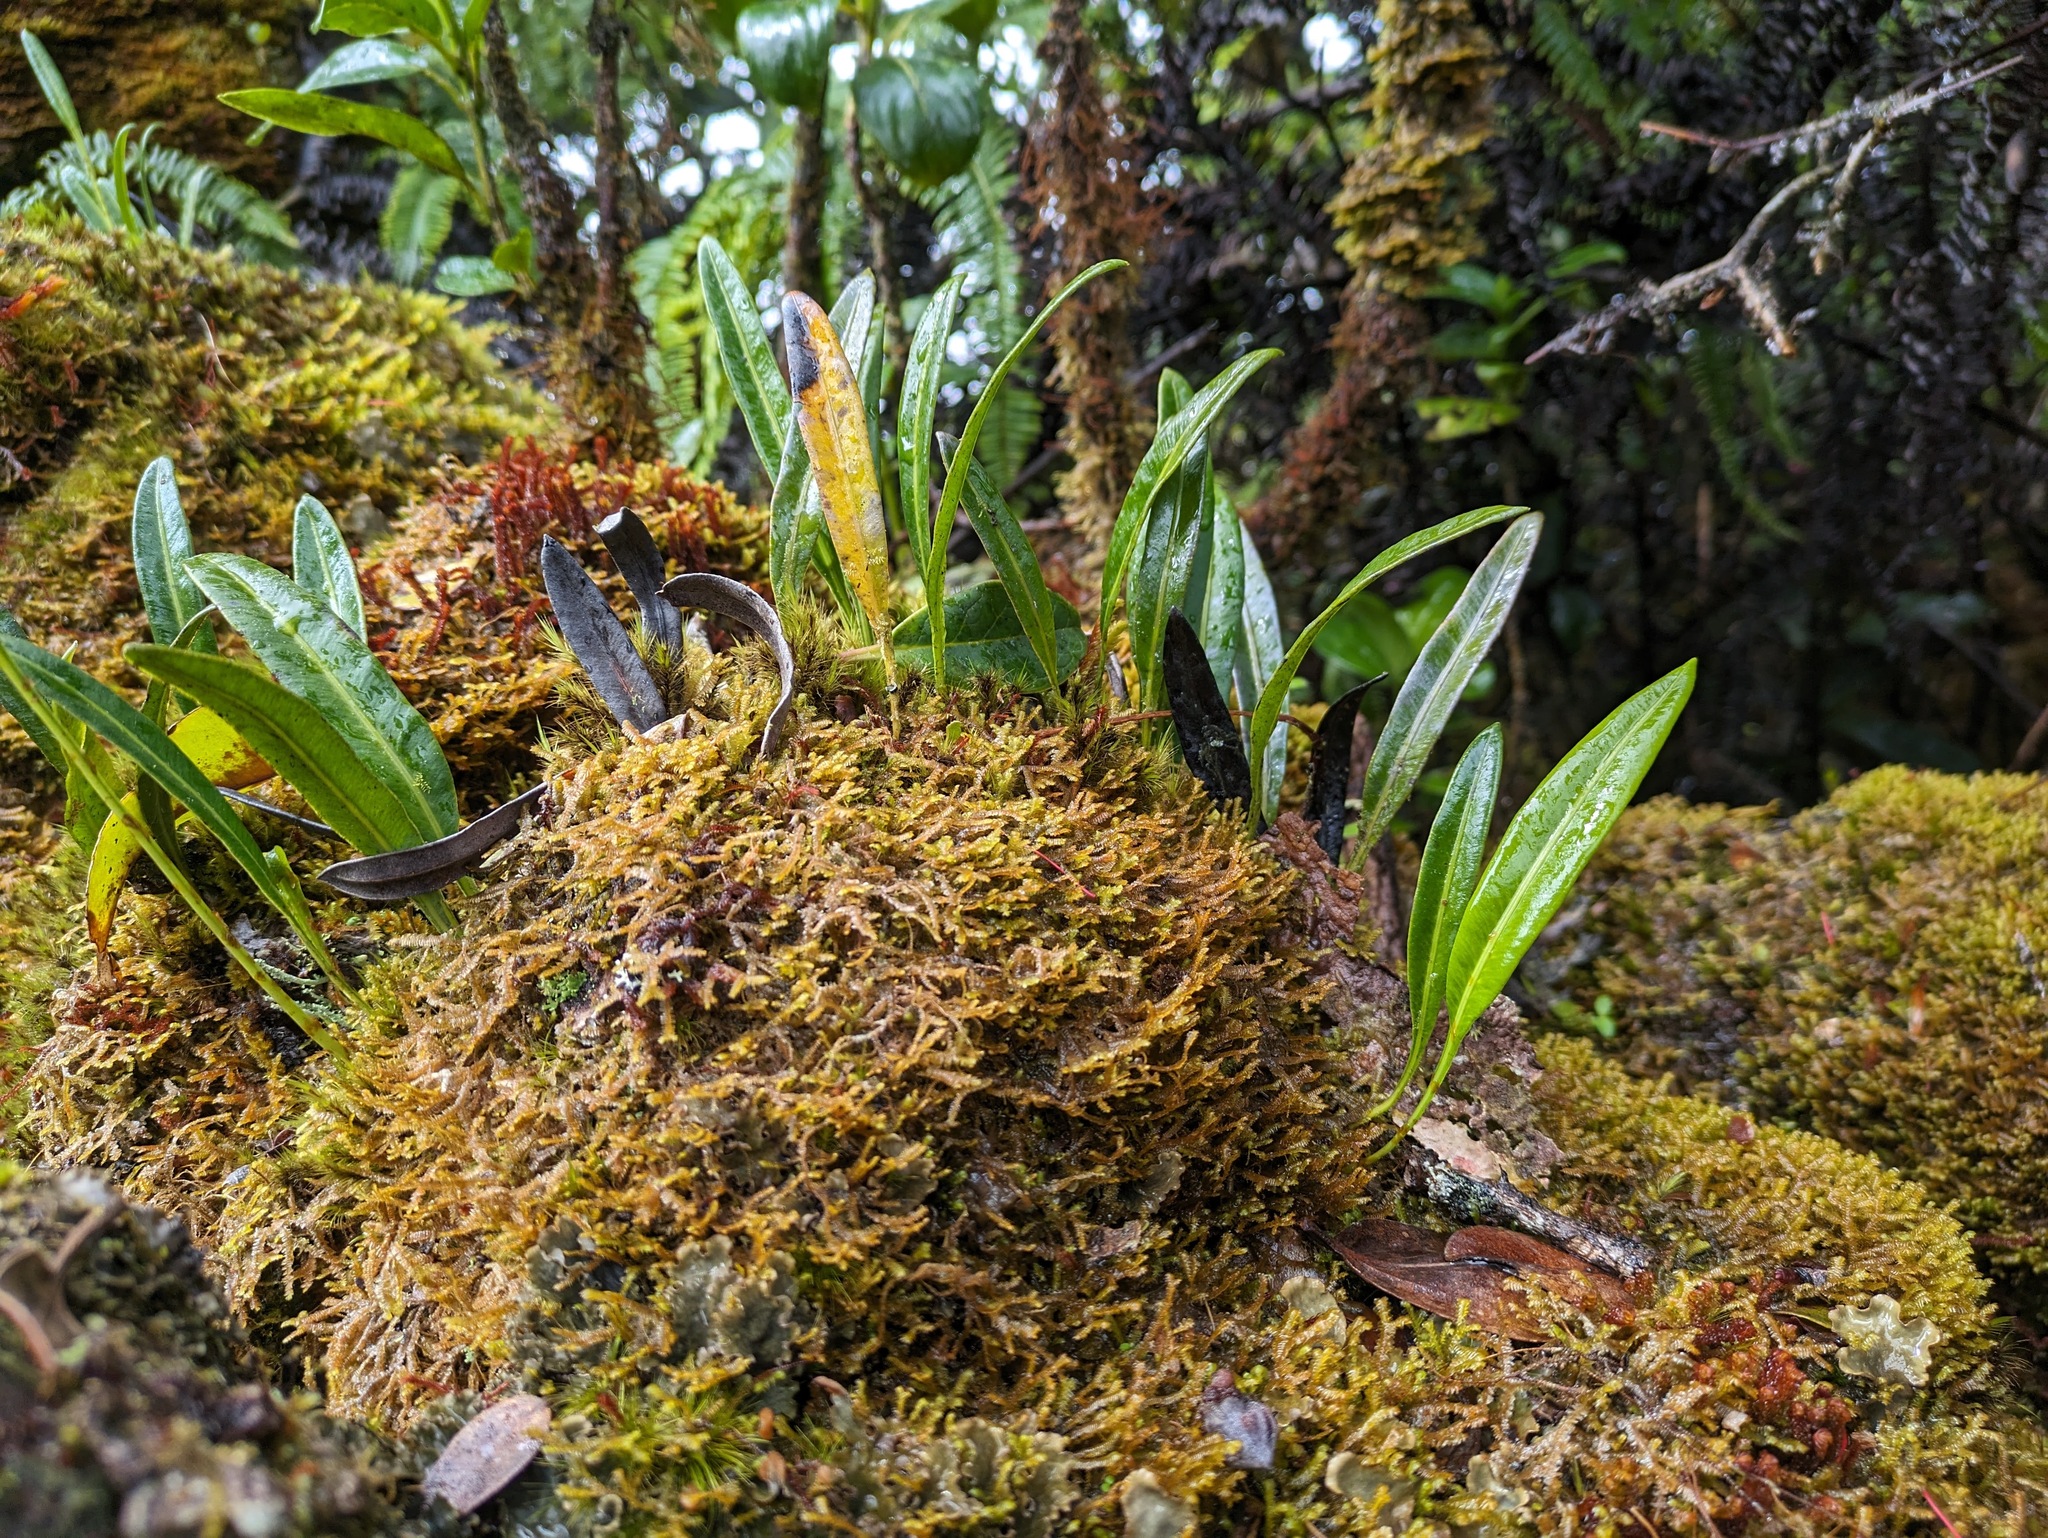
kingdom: Plantae
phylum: Tracheophyta
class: Polypodiopsida
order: Polypodiales
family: Dryopteridaceae
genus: Elaphoglossum
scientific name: Elaphoglossum wawrae
